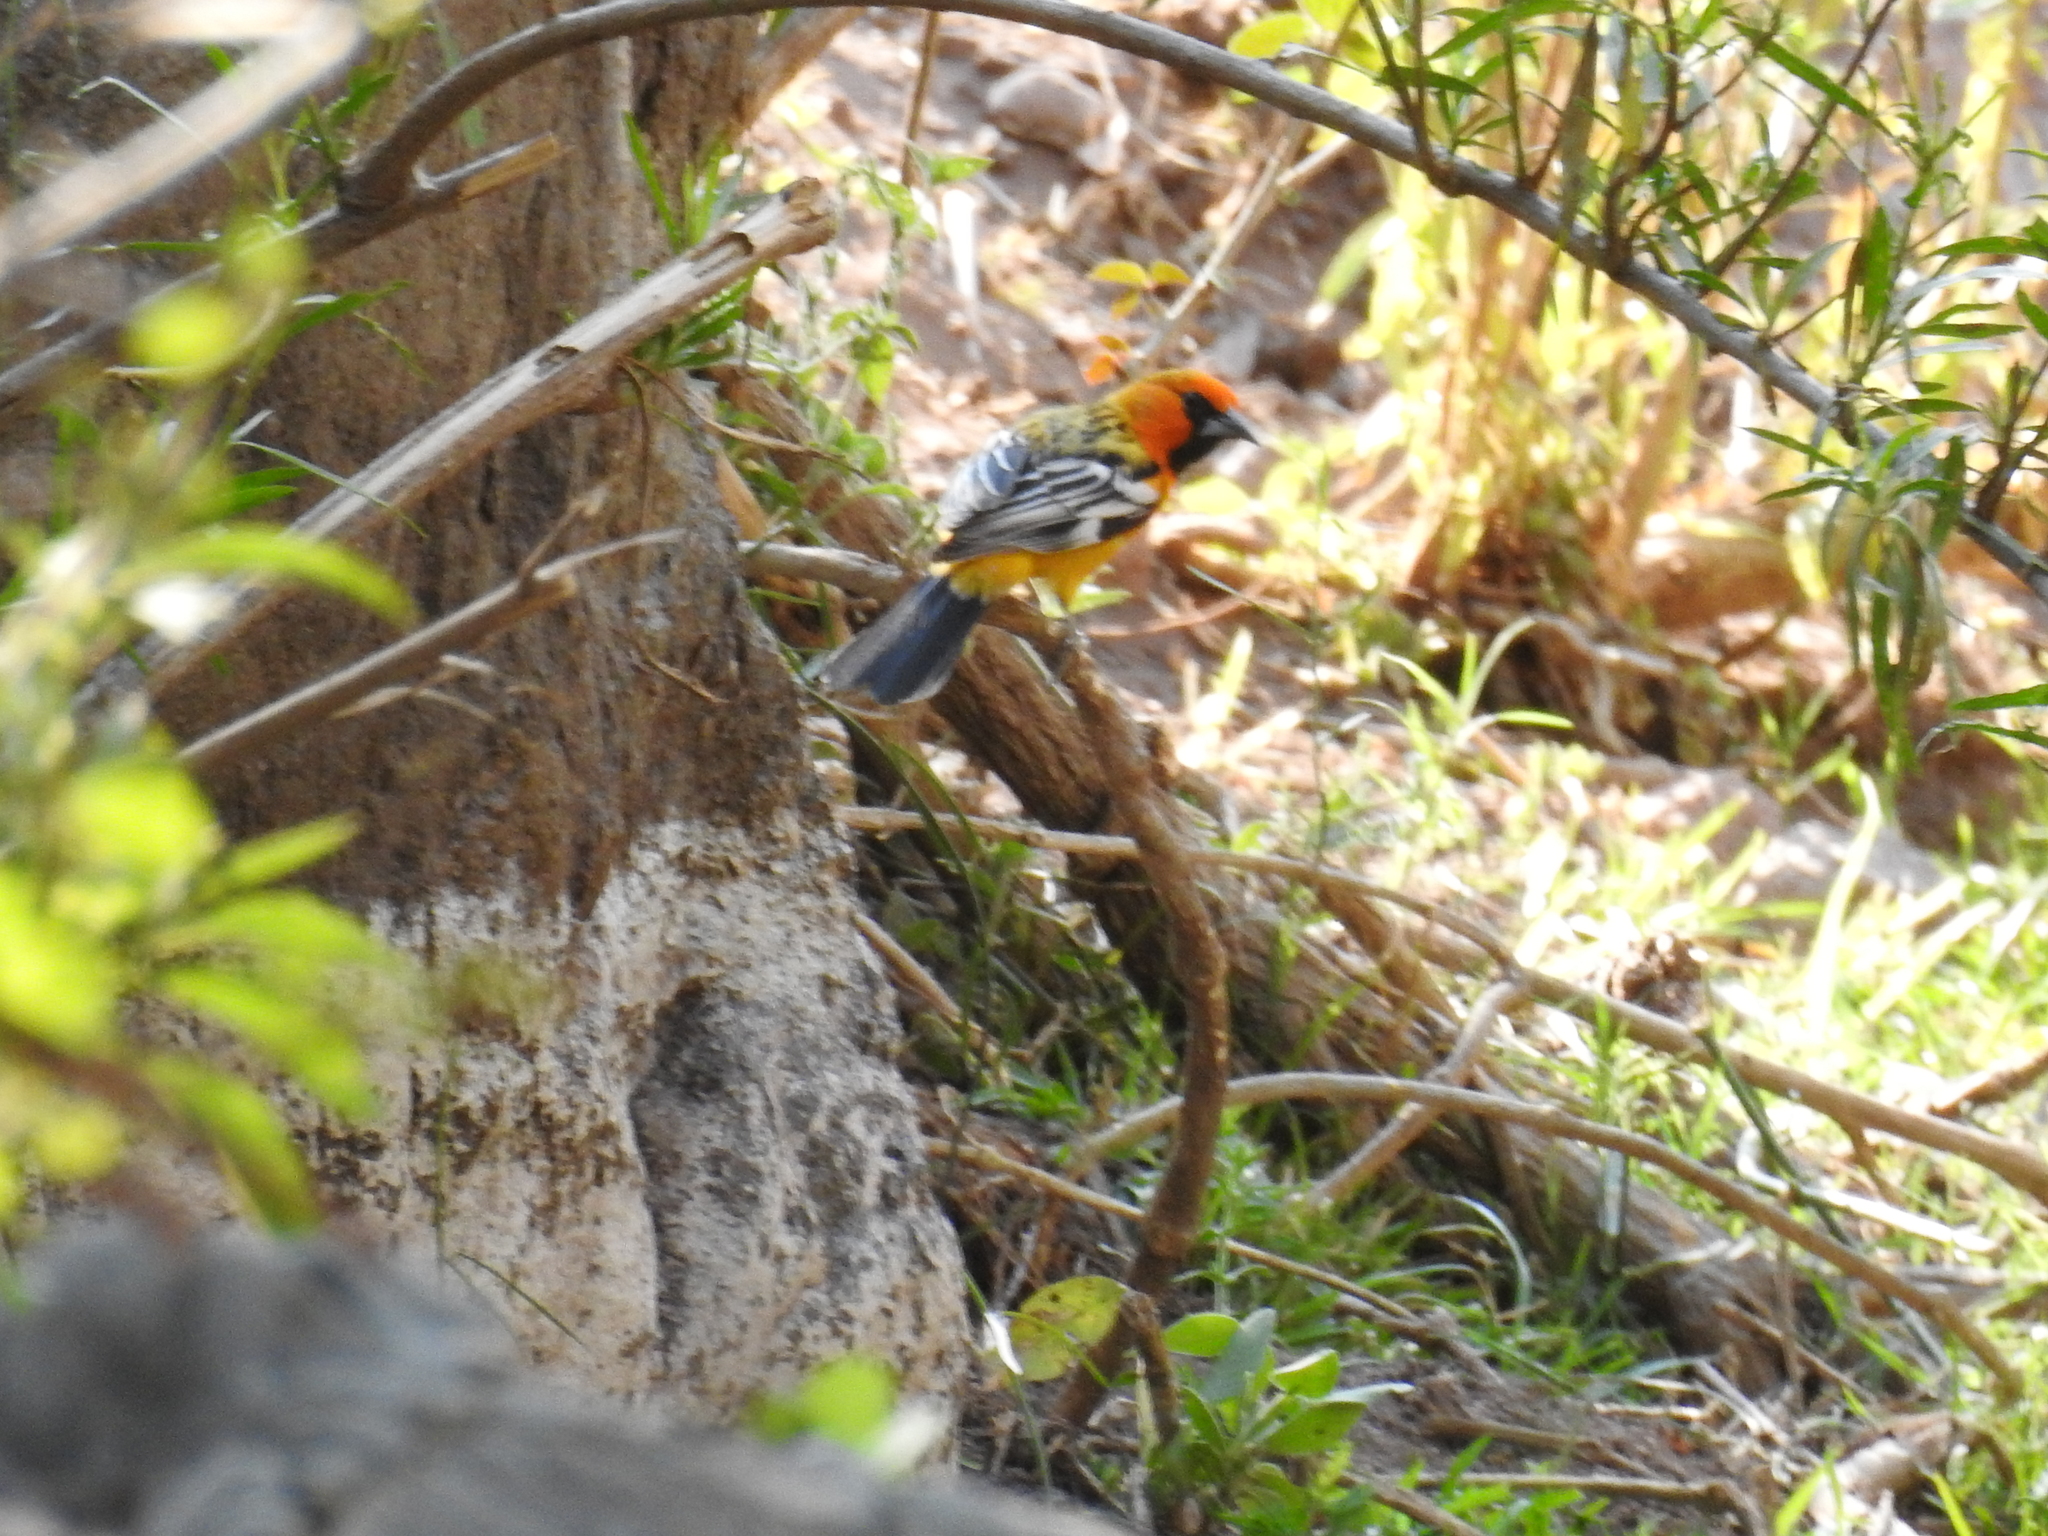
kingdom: Animalia
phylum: Chordata
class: Aves
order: Passeriformes
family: Icteridae
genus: Icterus
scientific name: Icterus pustulatus
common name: Streak-backed oriole
